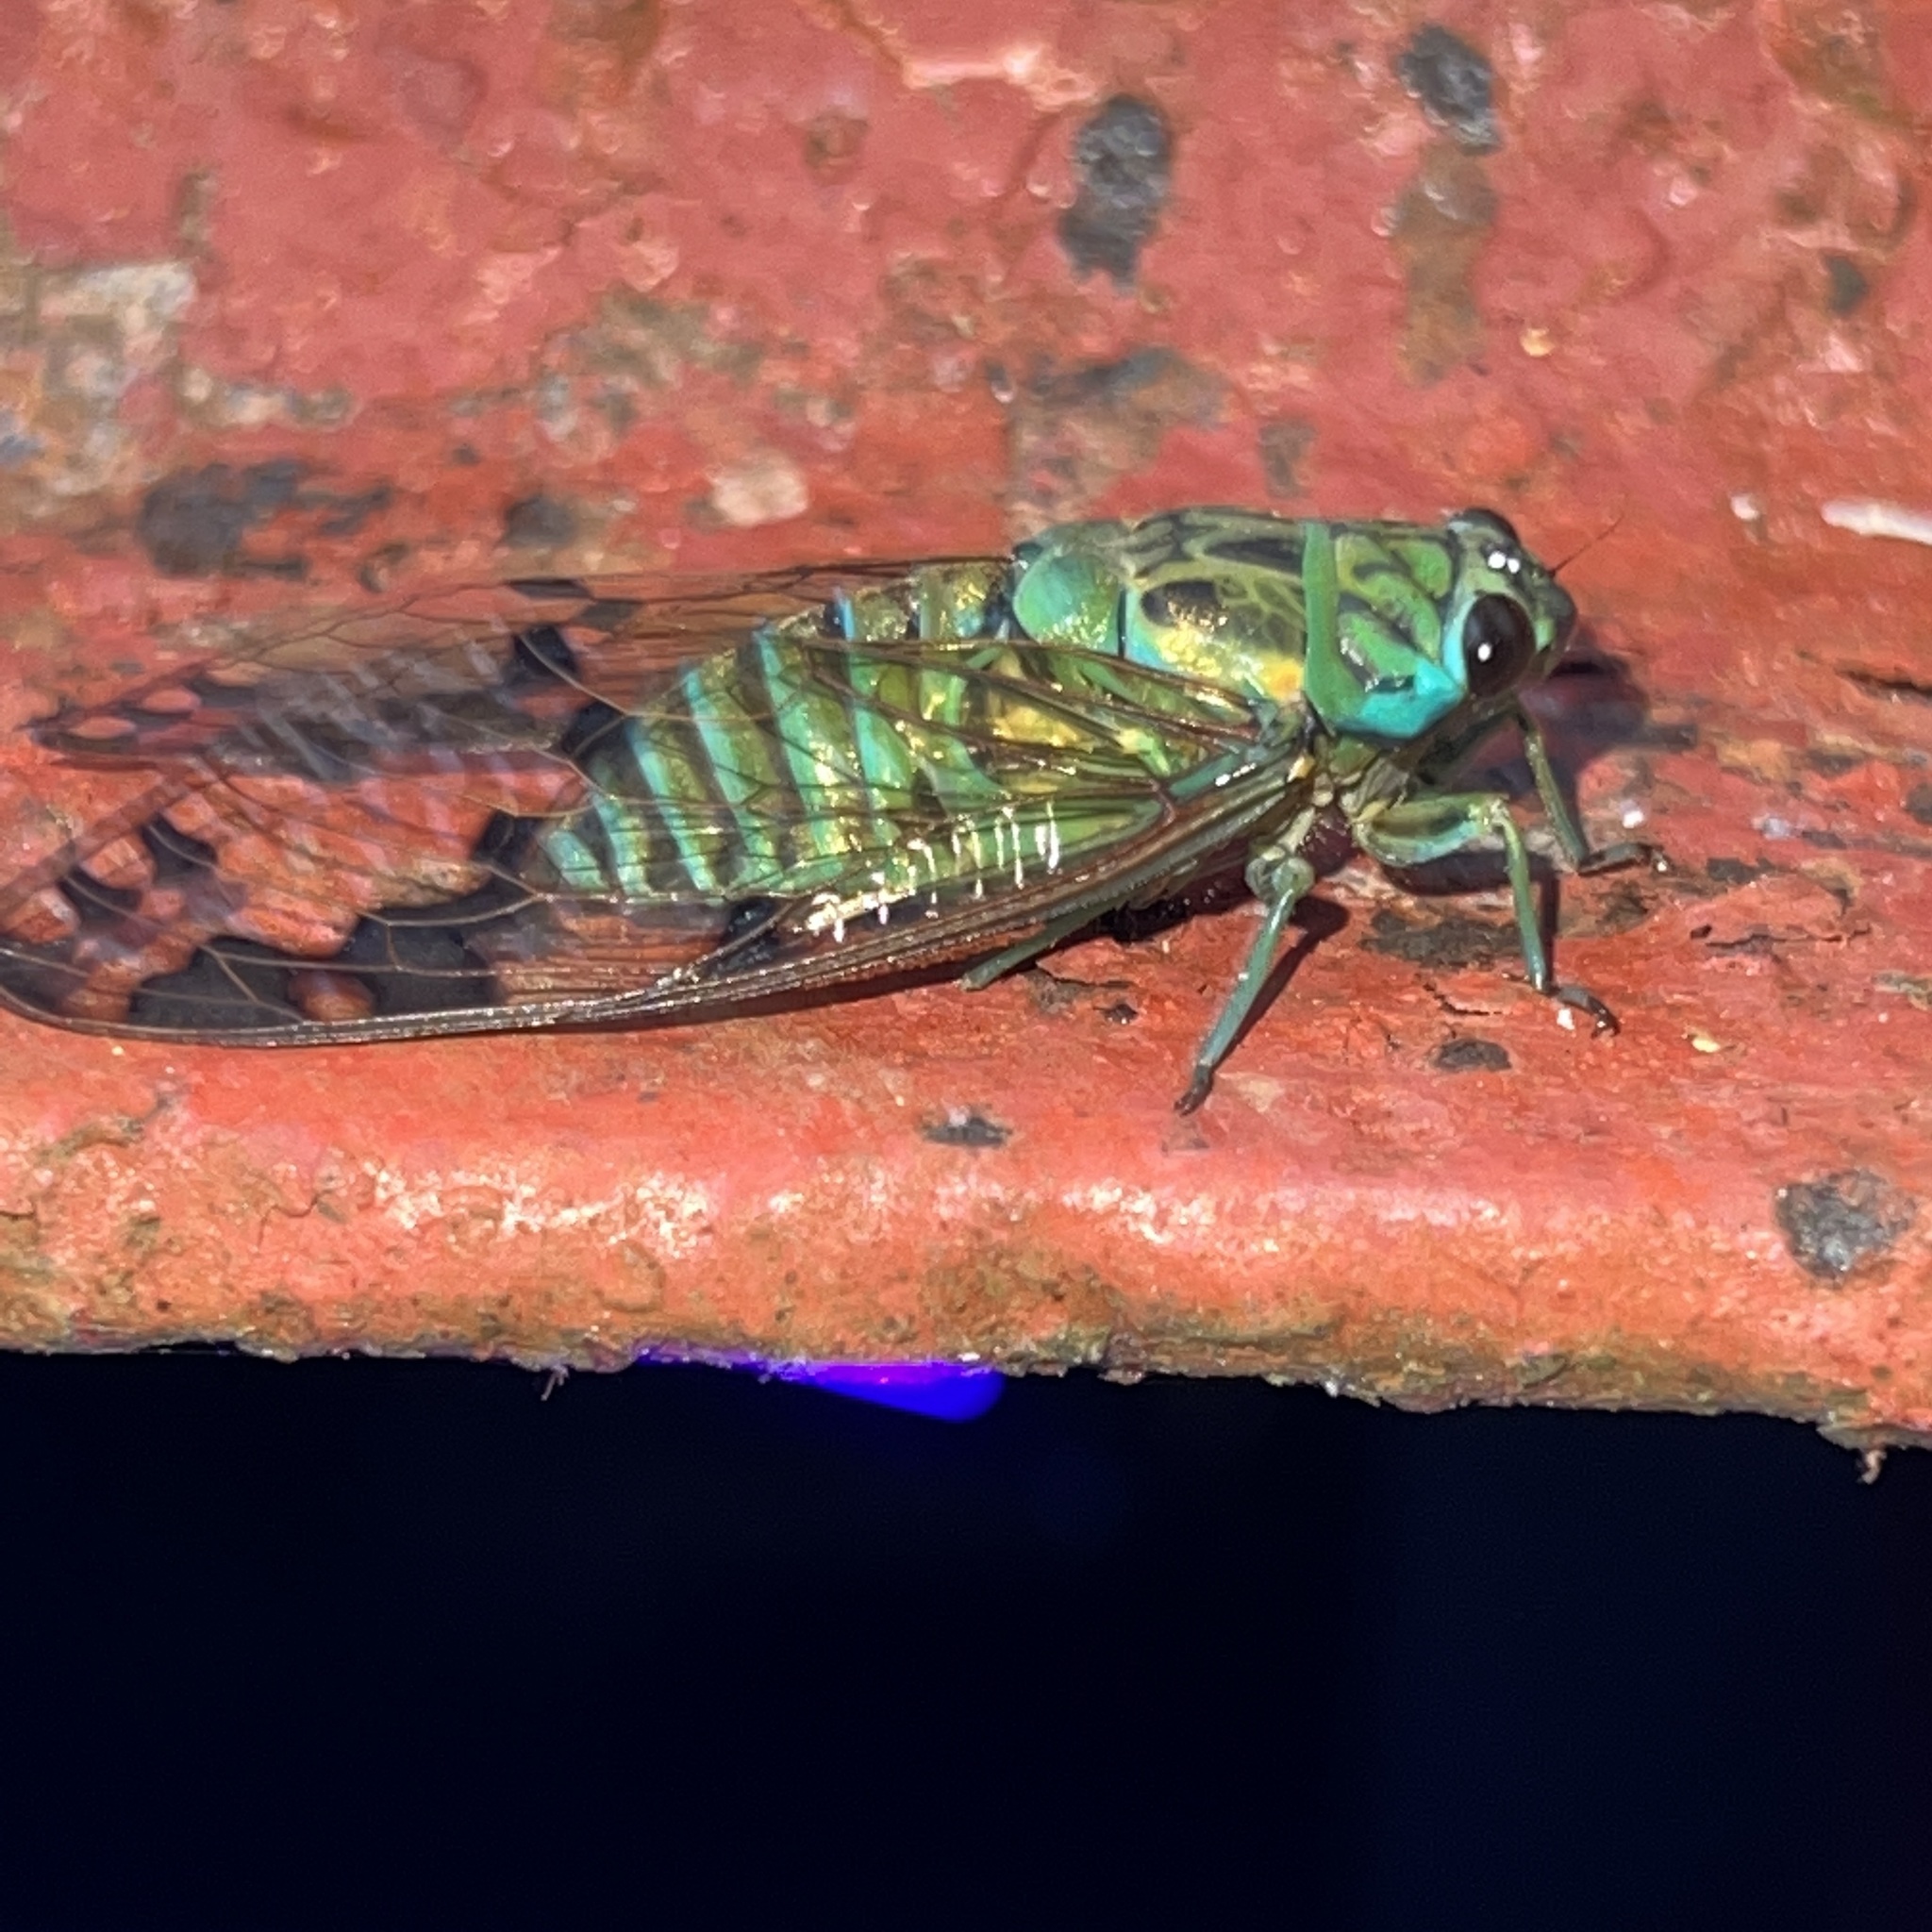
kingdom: Animalia
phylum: Arthropoda
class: Insecta
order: Hemiptera
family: Cicadidae
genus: Zammara
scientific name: Zammara olivacea
